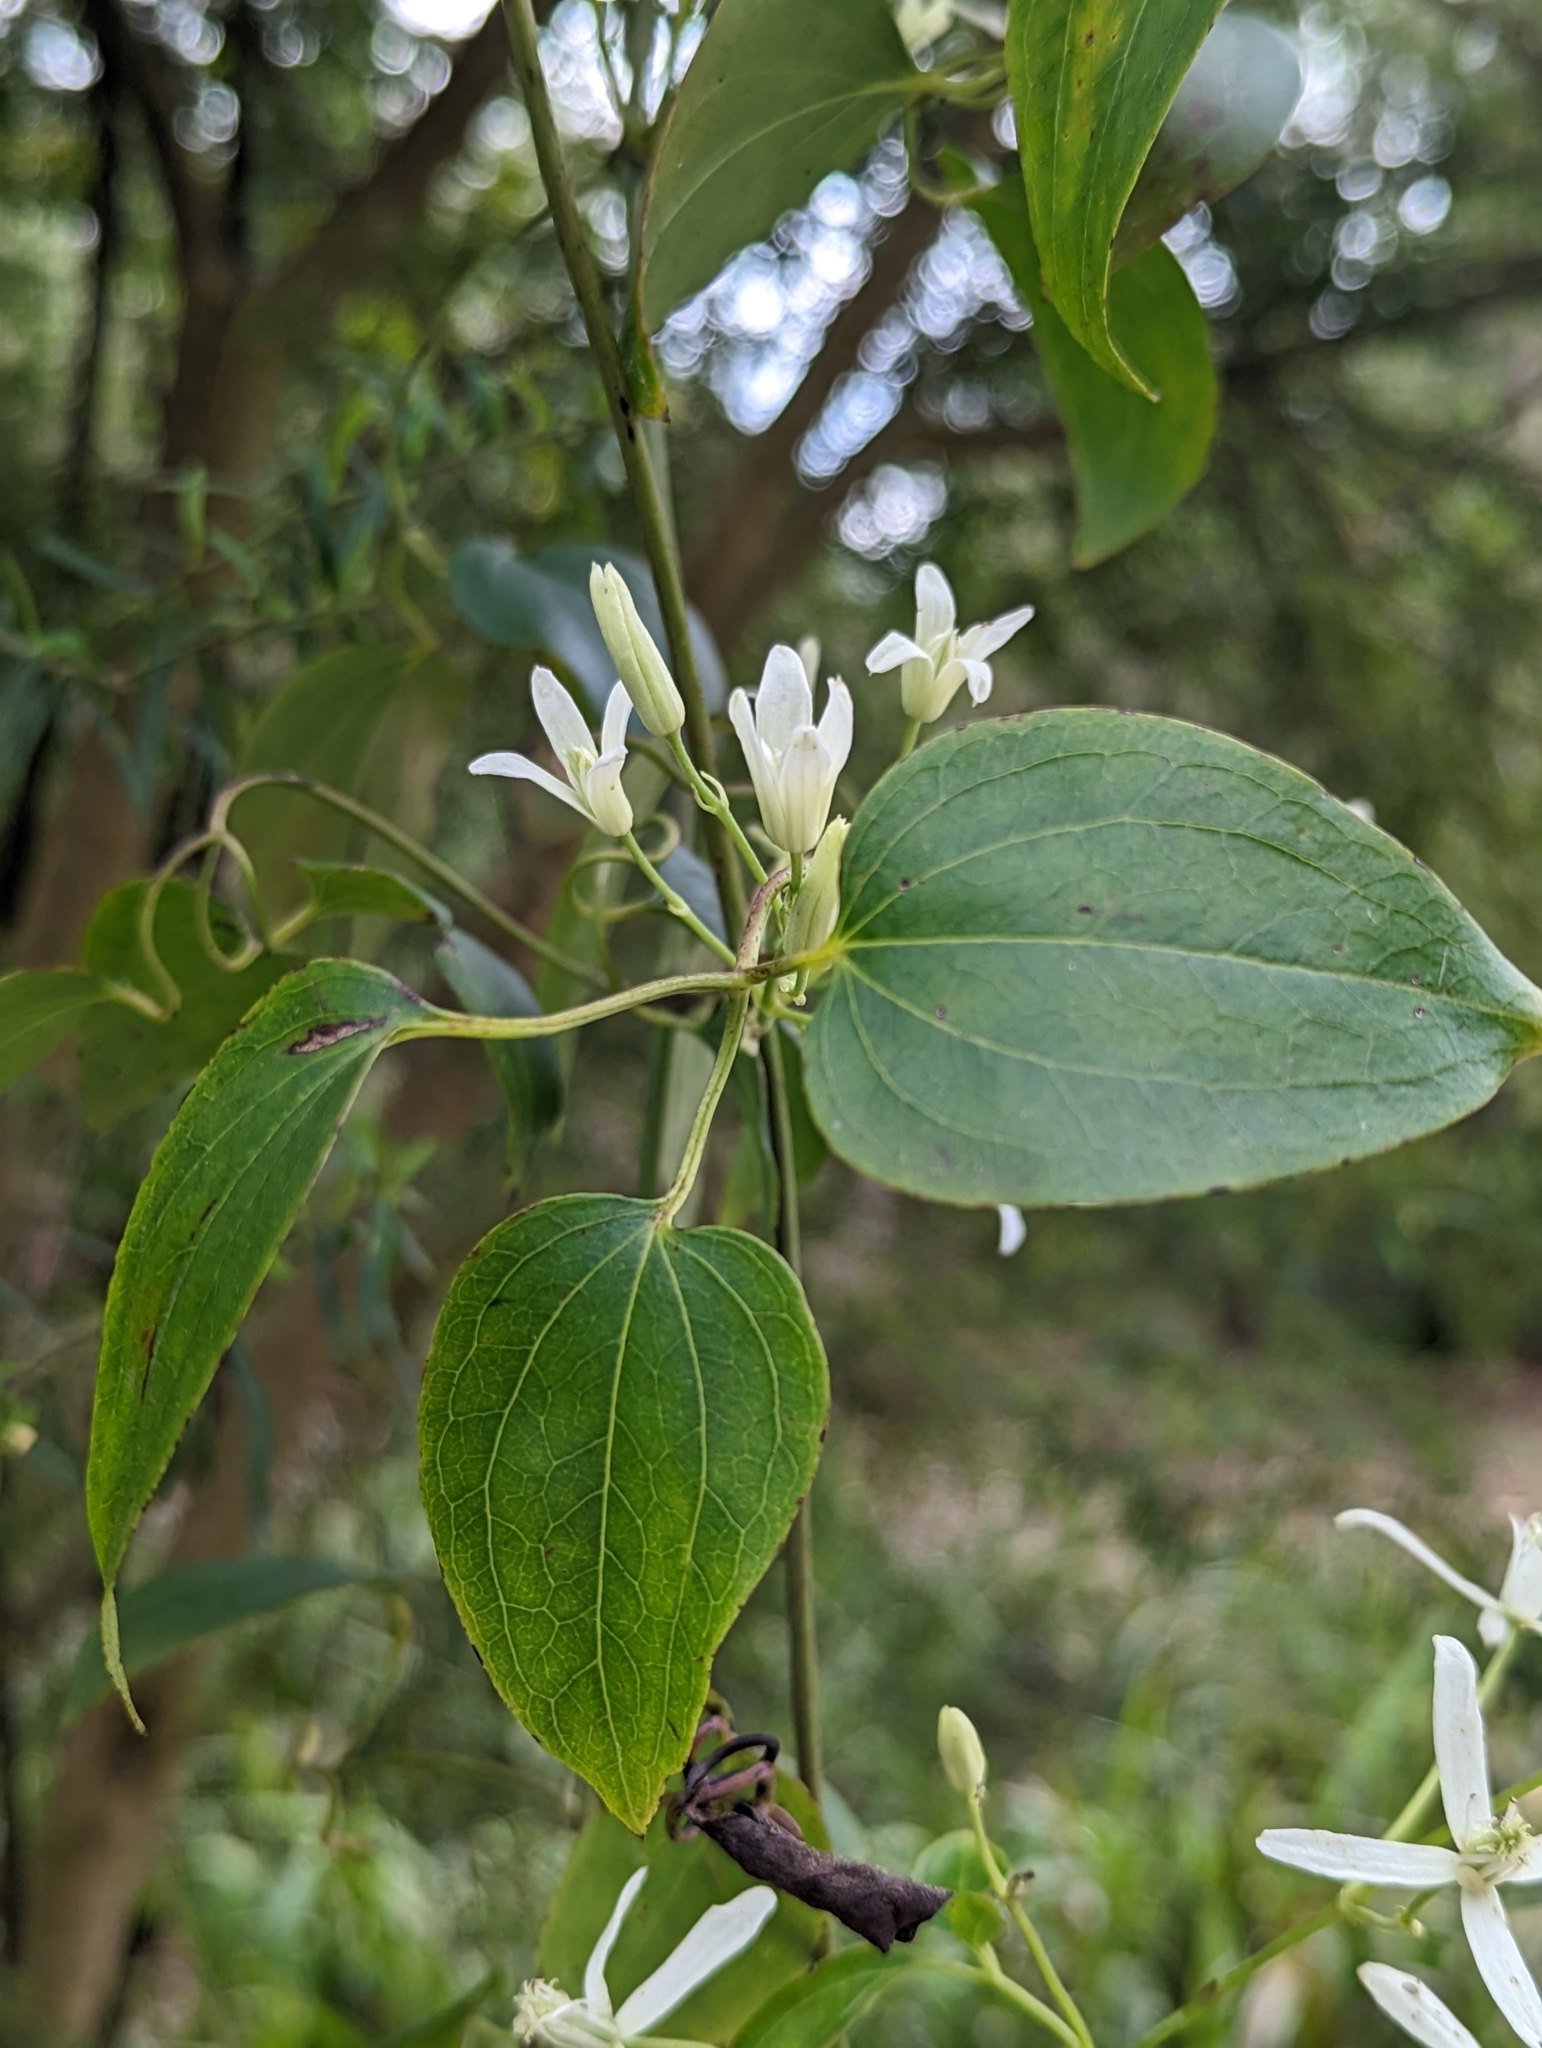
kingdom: Plantae
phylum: Tracheophyta
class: Magnoliopsida
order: Ranunculales
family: Ranunculaceae
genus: Clematis
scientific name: Clematis glycinoides
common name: Forest clematis
